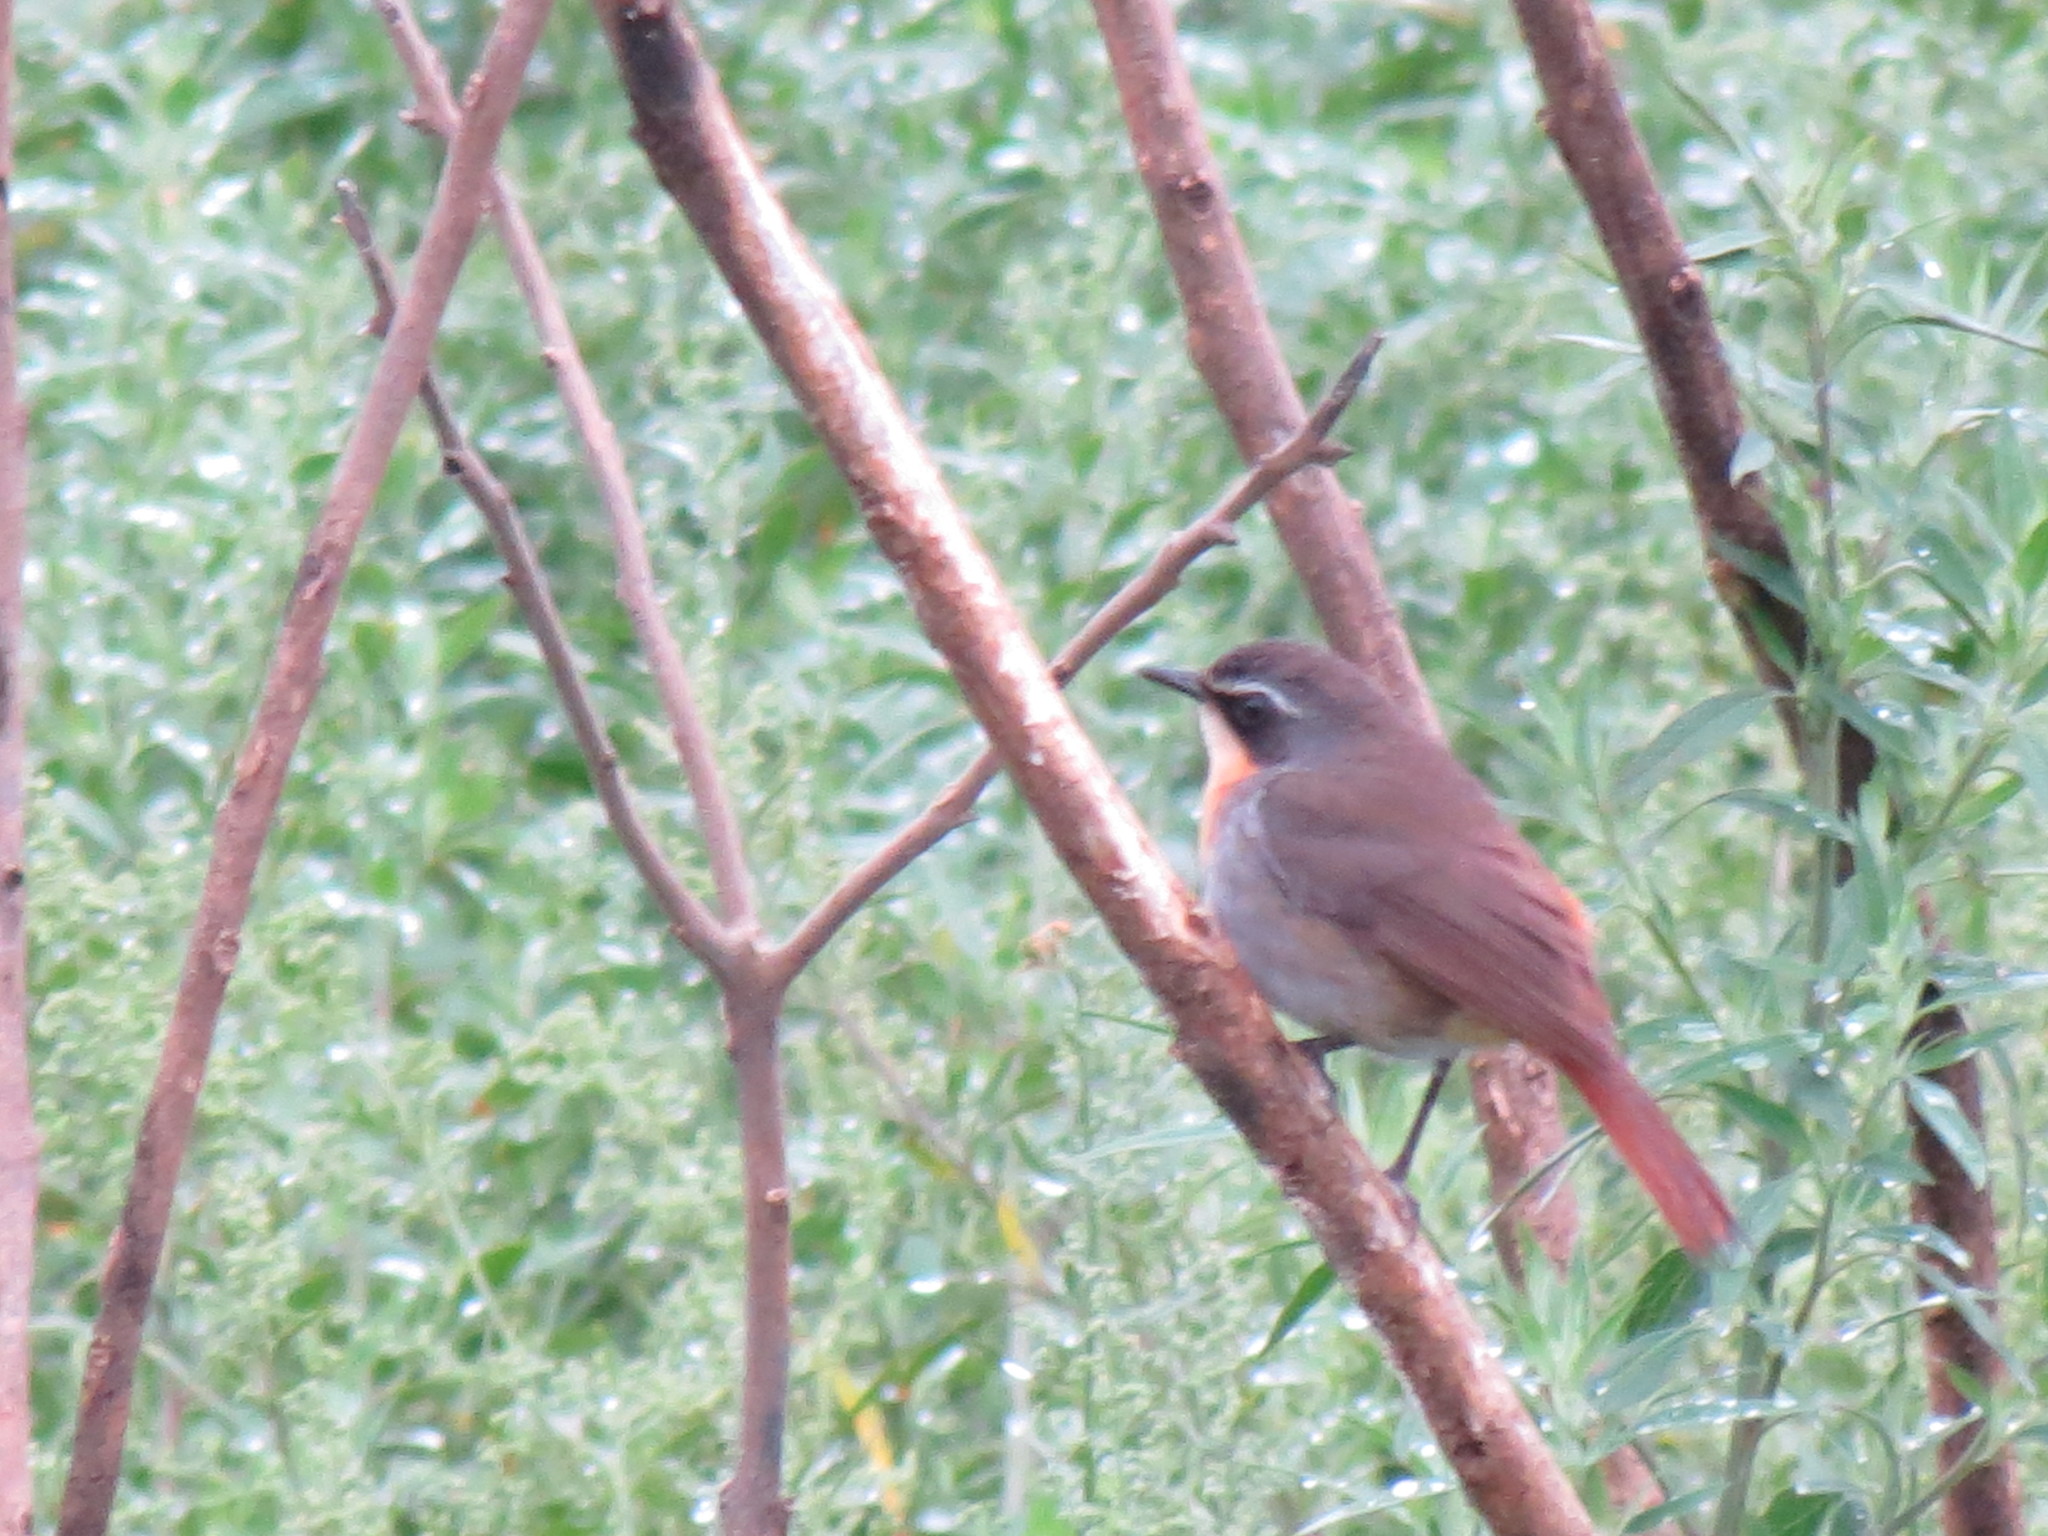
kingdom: Animalia
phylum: Chordata
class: Aves
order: Passeriformes
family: Muscicapidae
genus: Cossypha
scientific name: Cossypha caffra
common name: Cape robin-chat
